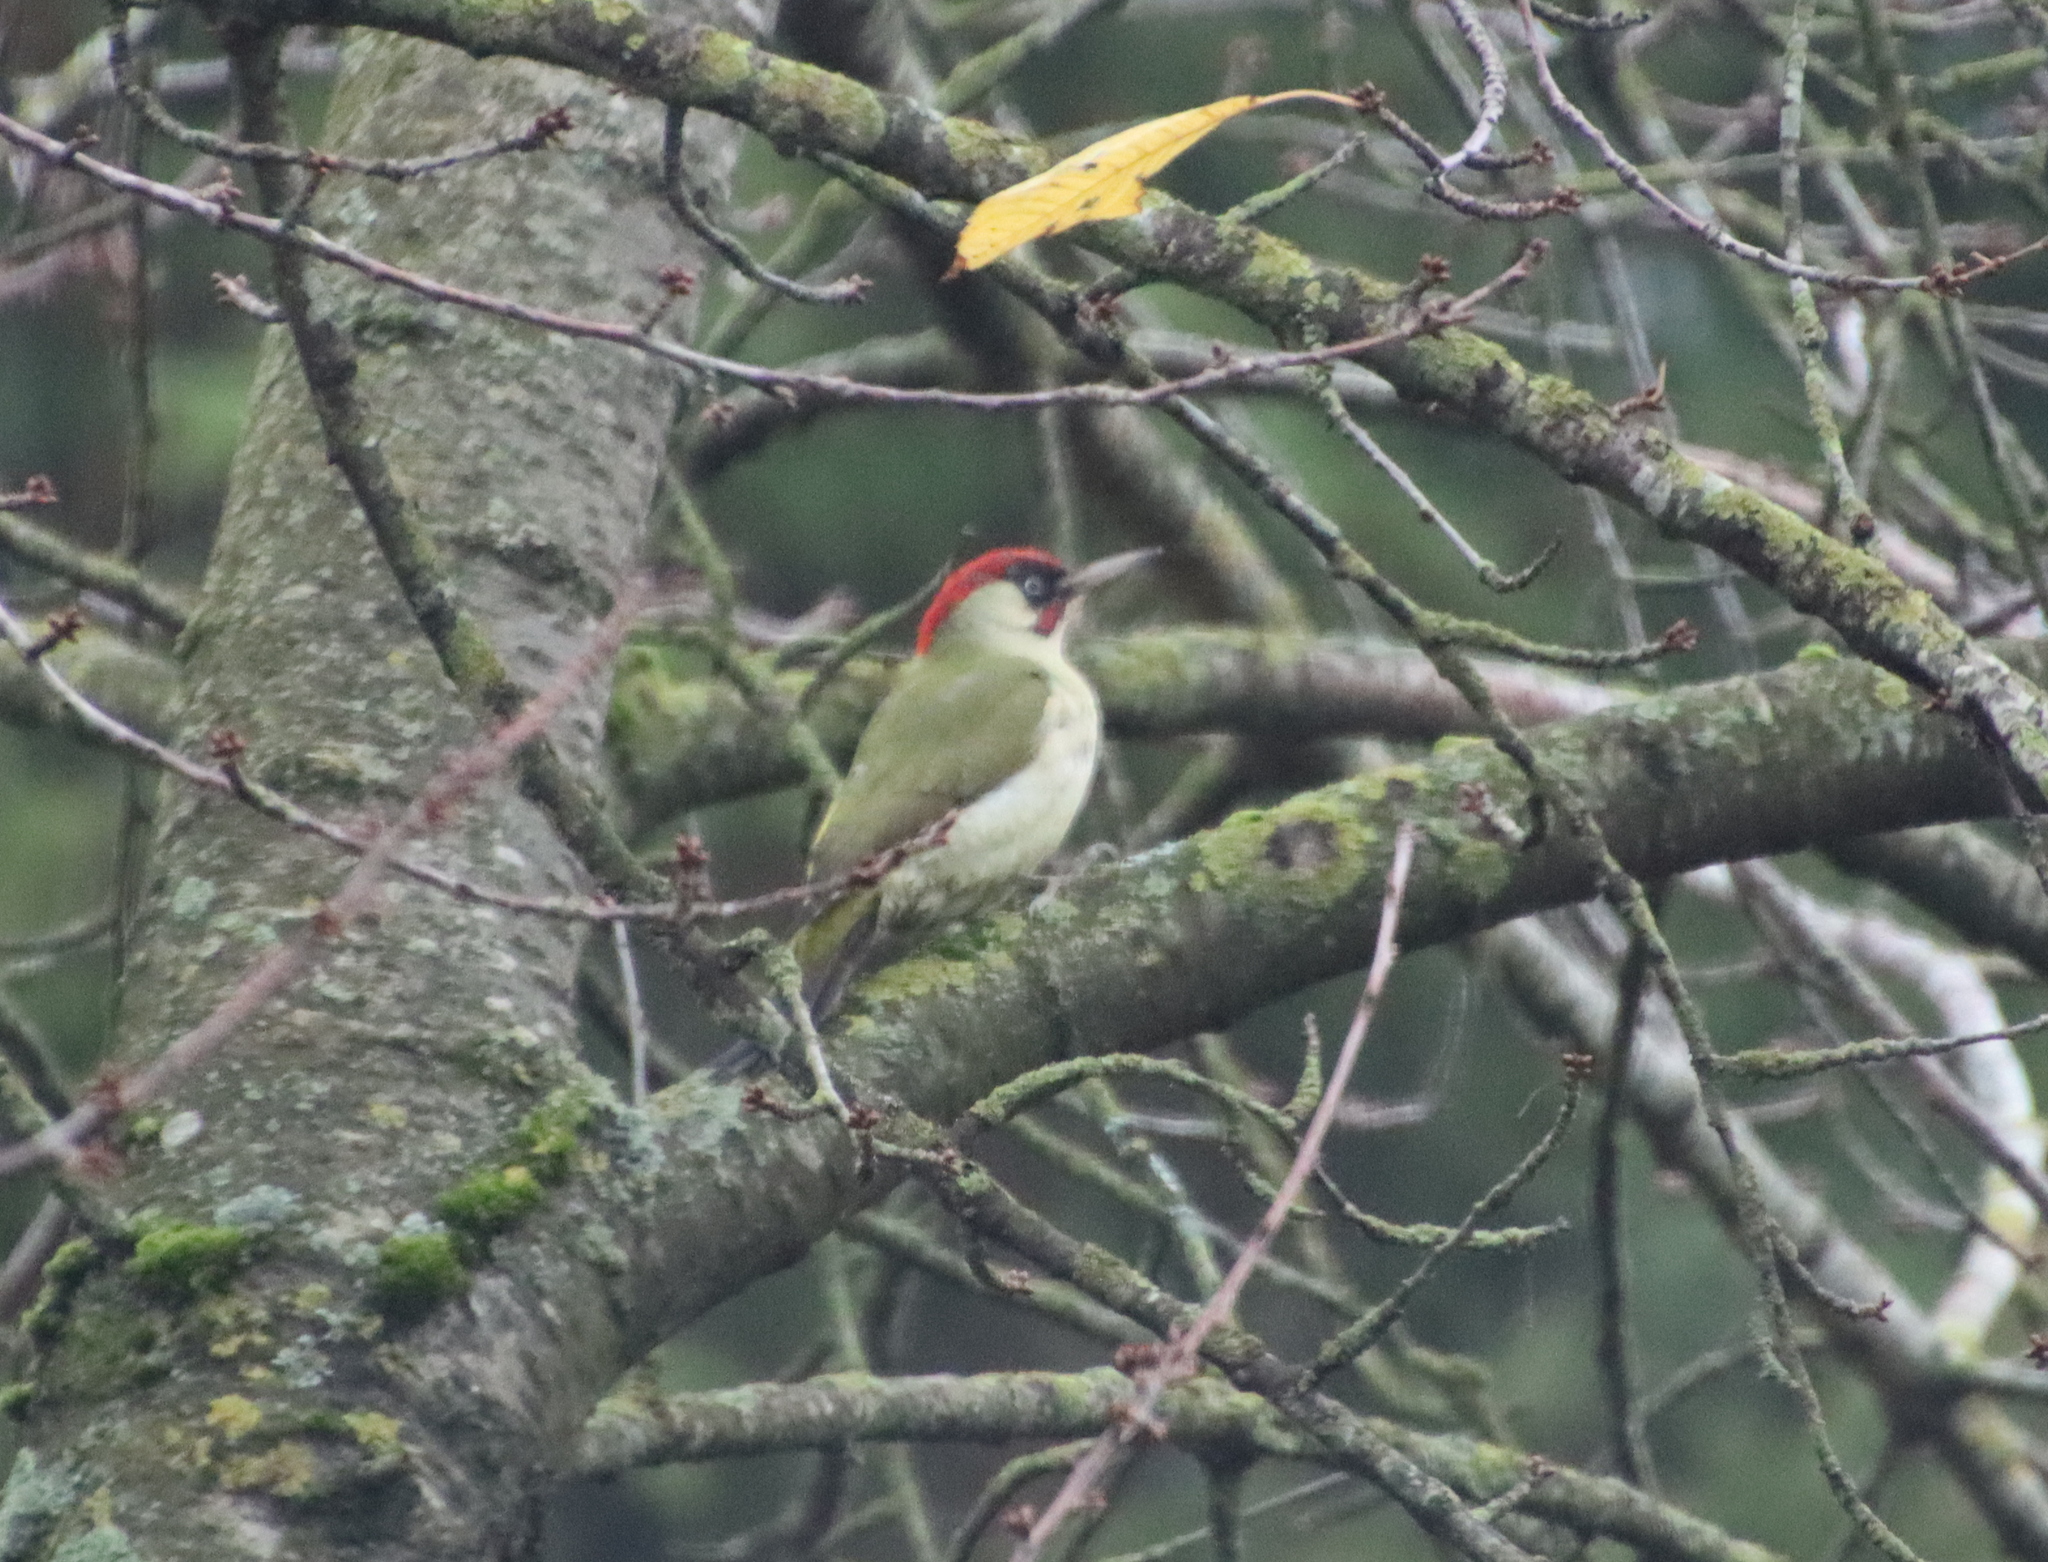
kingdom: Animalia
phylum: Chordata
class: Aves
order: Piciformes
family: Picidae
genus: Picus
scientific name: Picus viridis
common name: European green woodpecker
